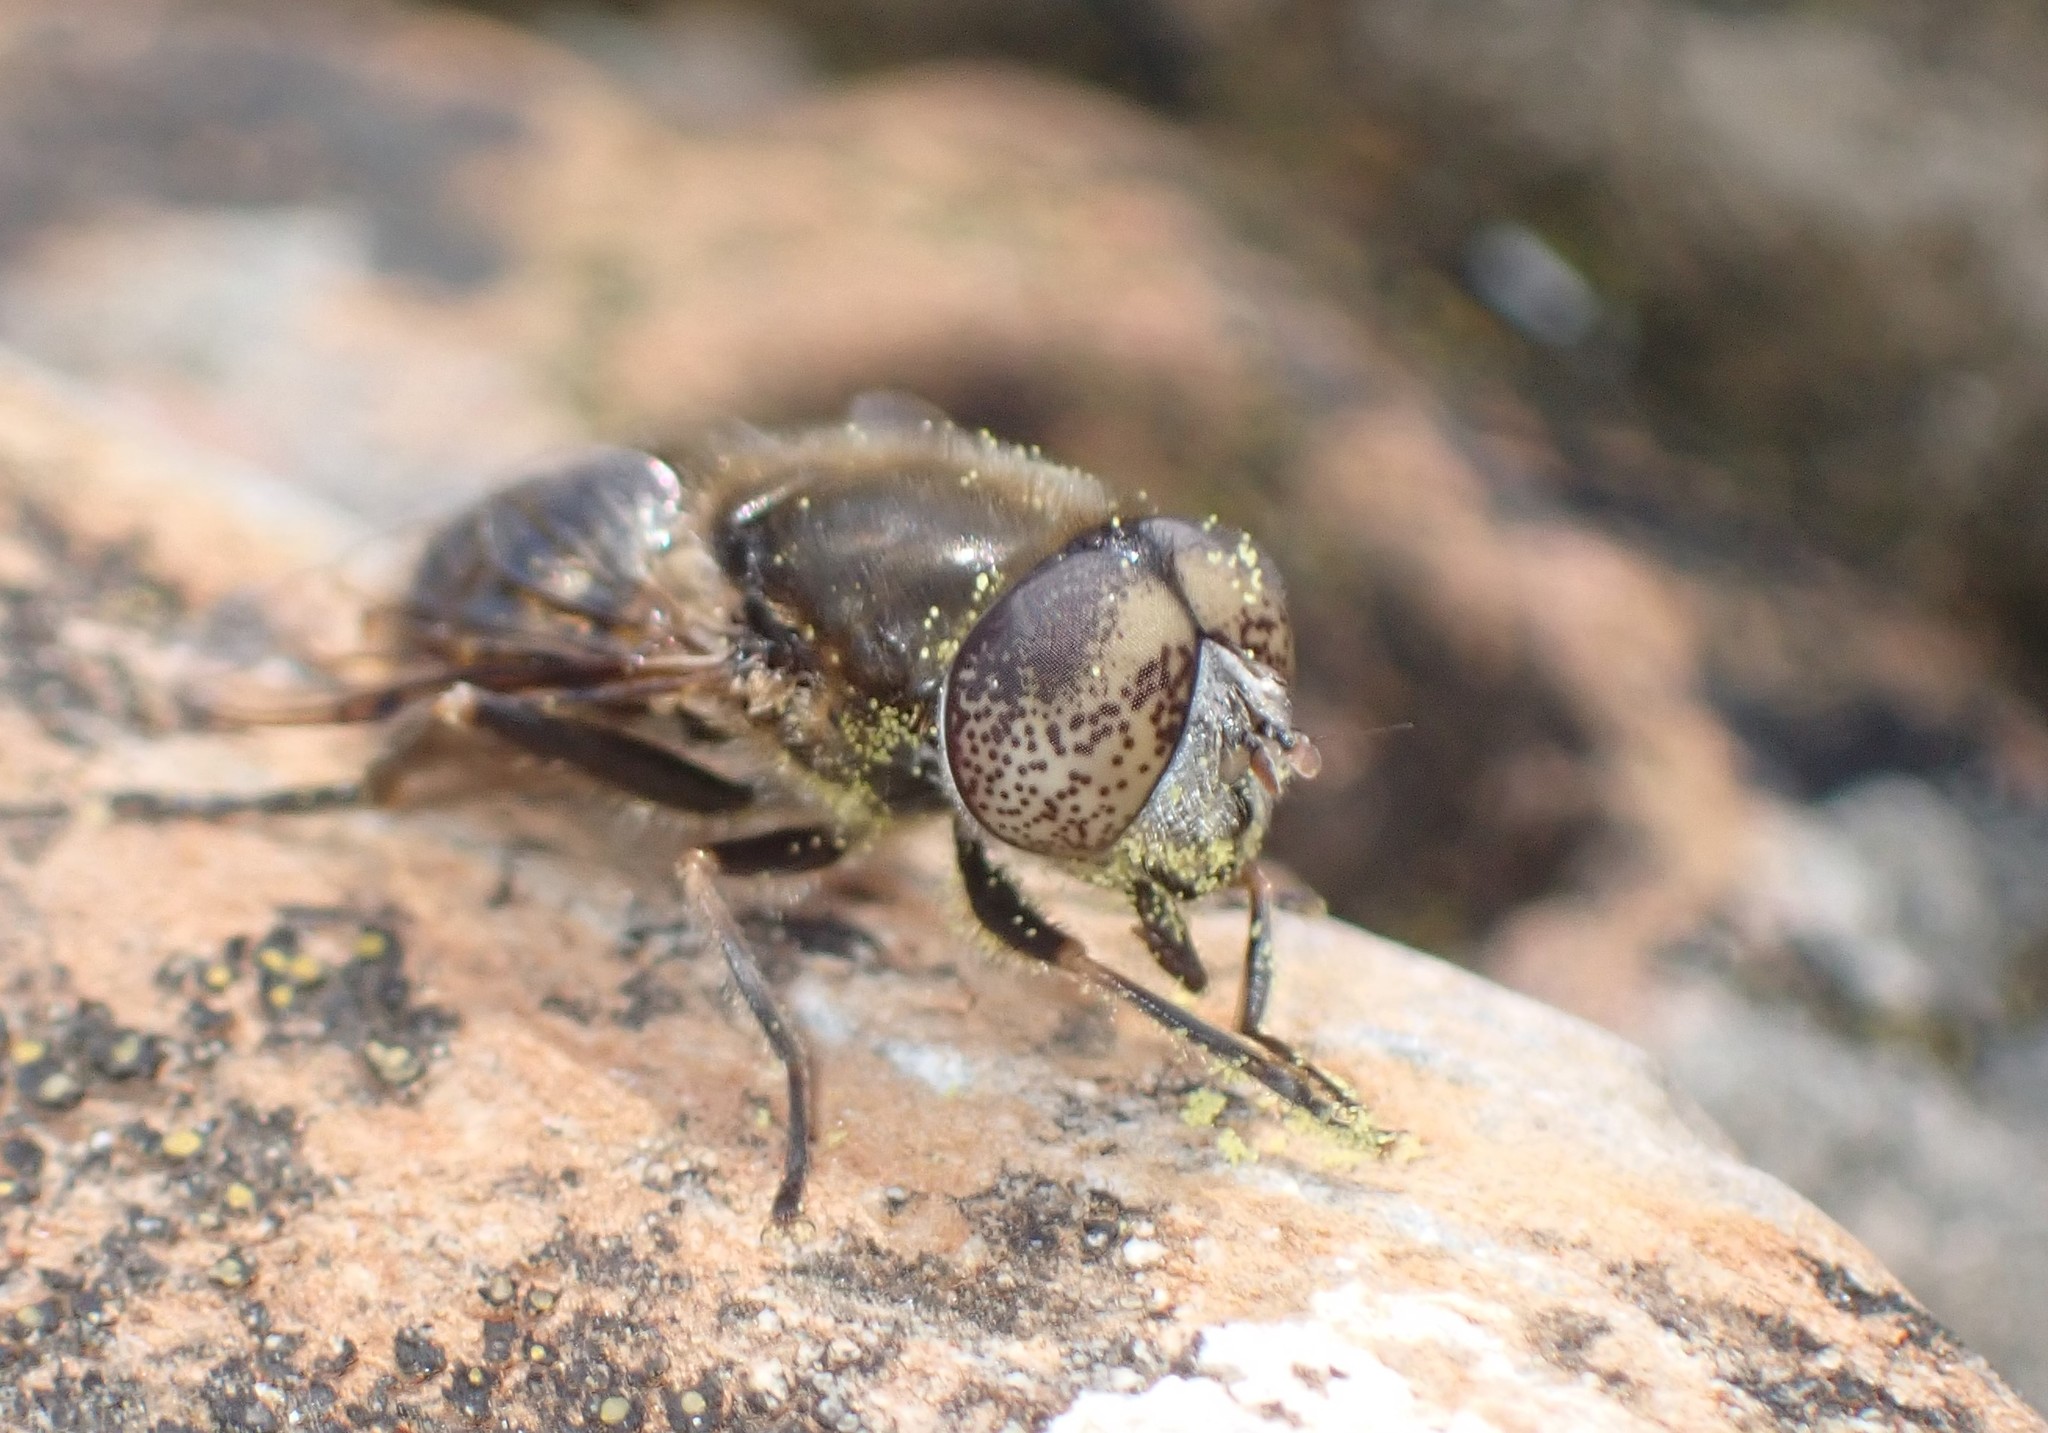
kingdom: Animalia
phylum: Arthropoda
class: Insecta
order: Diptera
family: Syrphidae
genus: Eristalinus
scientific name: Eristalinus aeneus
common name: Syrphid fly
